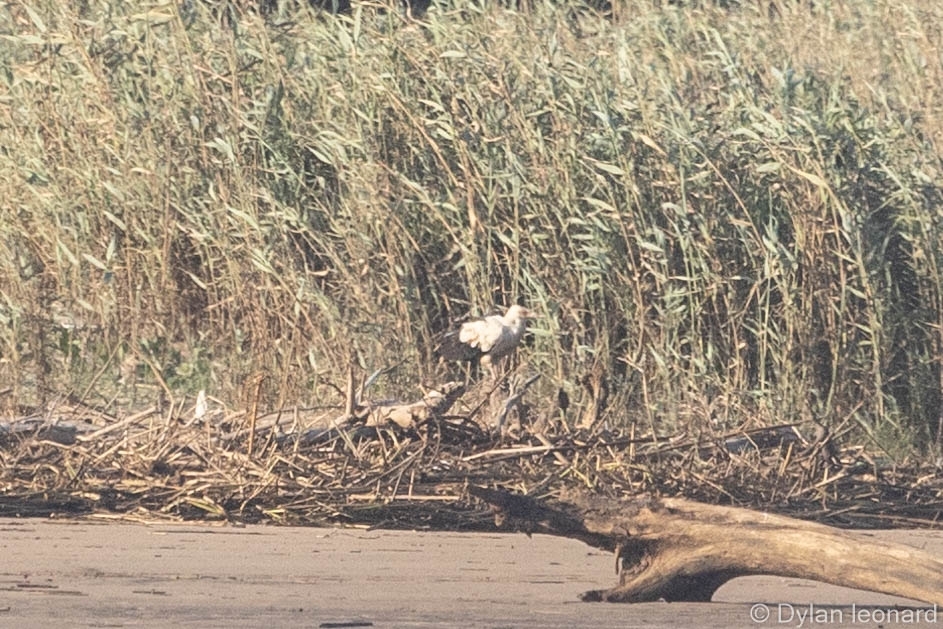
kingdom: Animalia
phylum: Chordata
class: Aves
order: Accipitriformes
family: Accipitridae
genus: Gypohierax
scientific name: Gypohierax angolensis
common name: Palm-nut vulture
